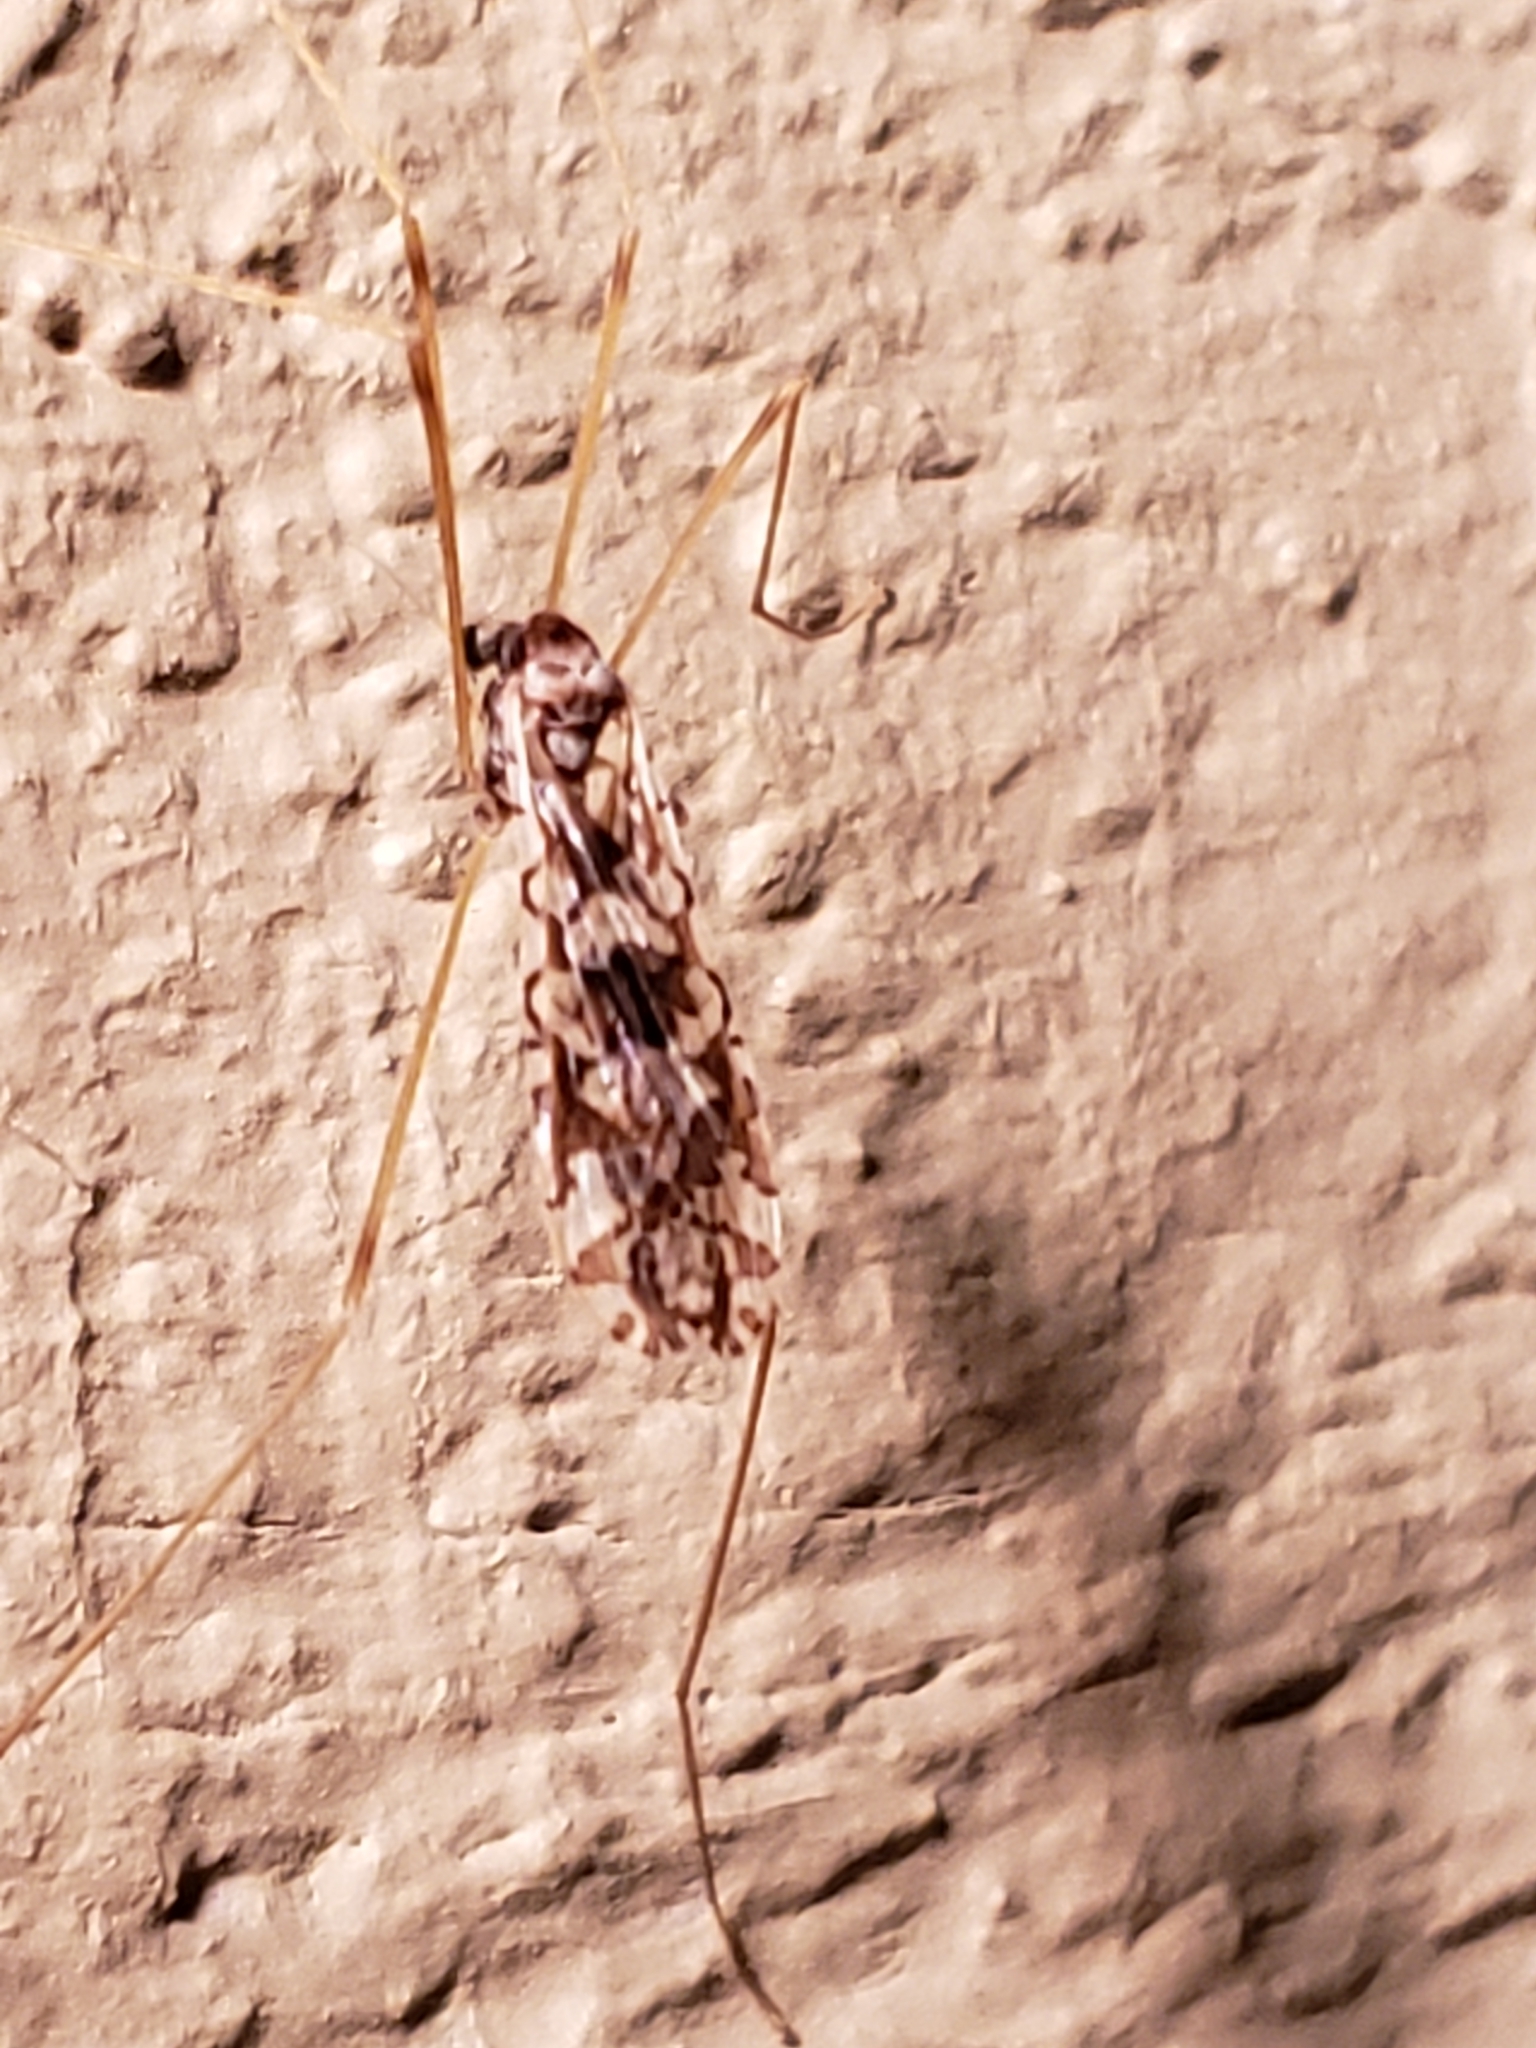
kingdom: Animalia
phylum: Arthropoda
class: Insecta
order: Diptera
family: Limoniidae
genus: Epiphragma
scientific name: Epiphragma solatrix
